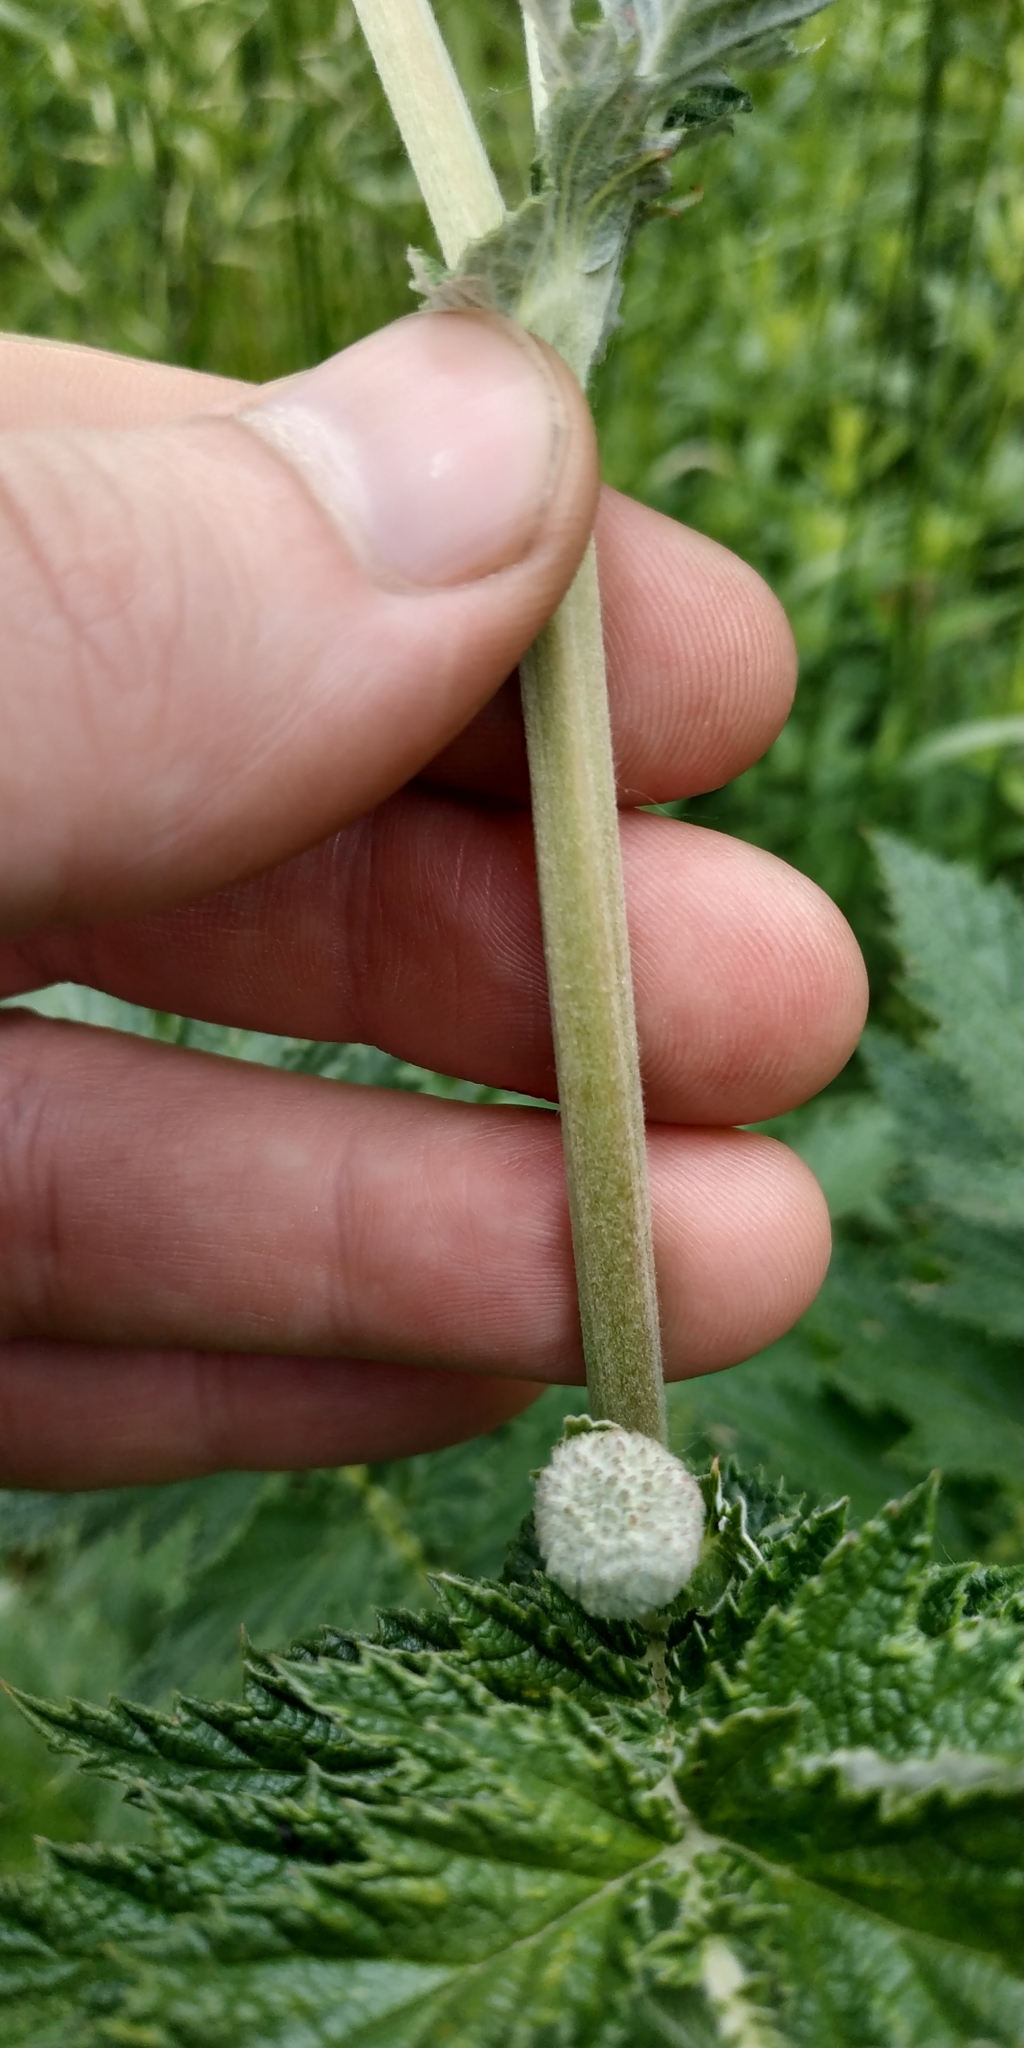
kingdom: Plantae
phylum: Tracheophyta
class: Magnoliopsida
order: Rosales
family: Rosaceae
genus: Filipendula
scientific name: Filipendula ulmaria
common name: Meadowsweet
